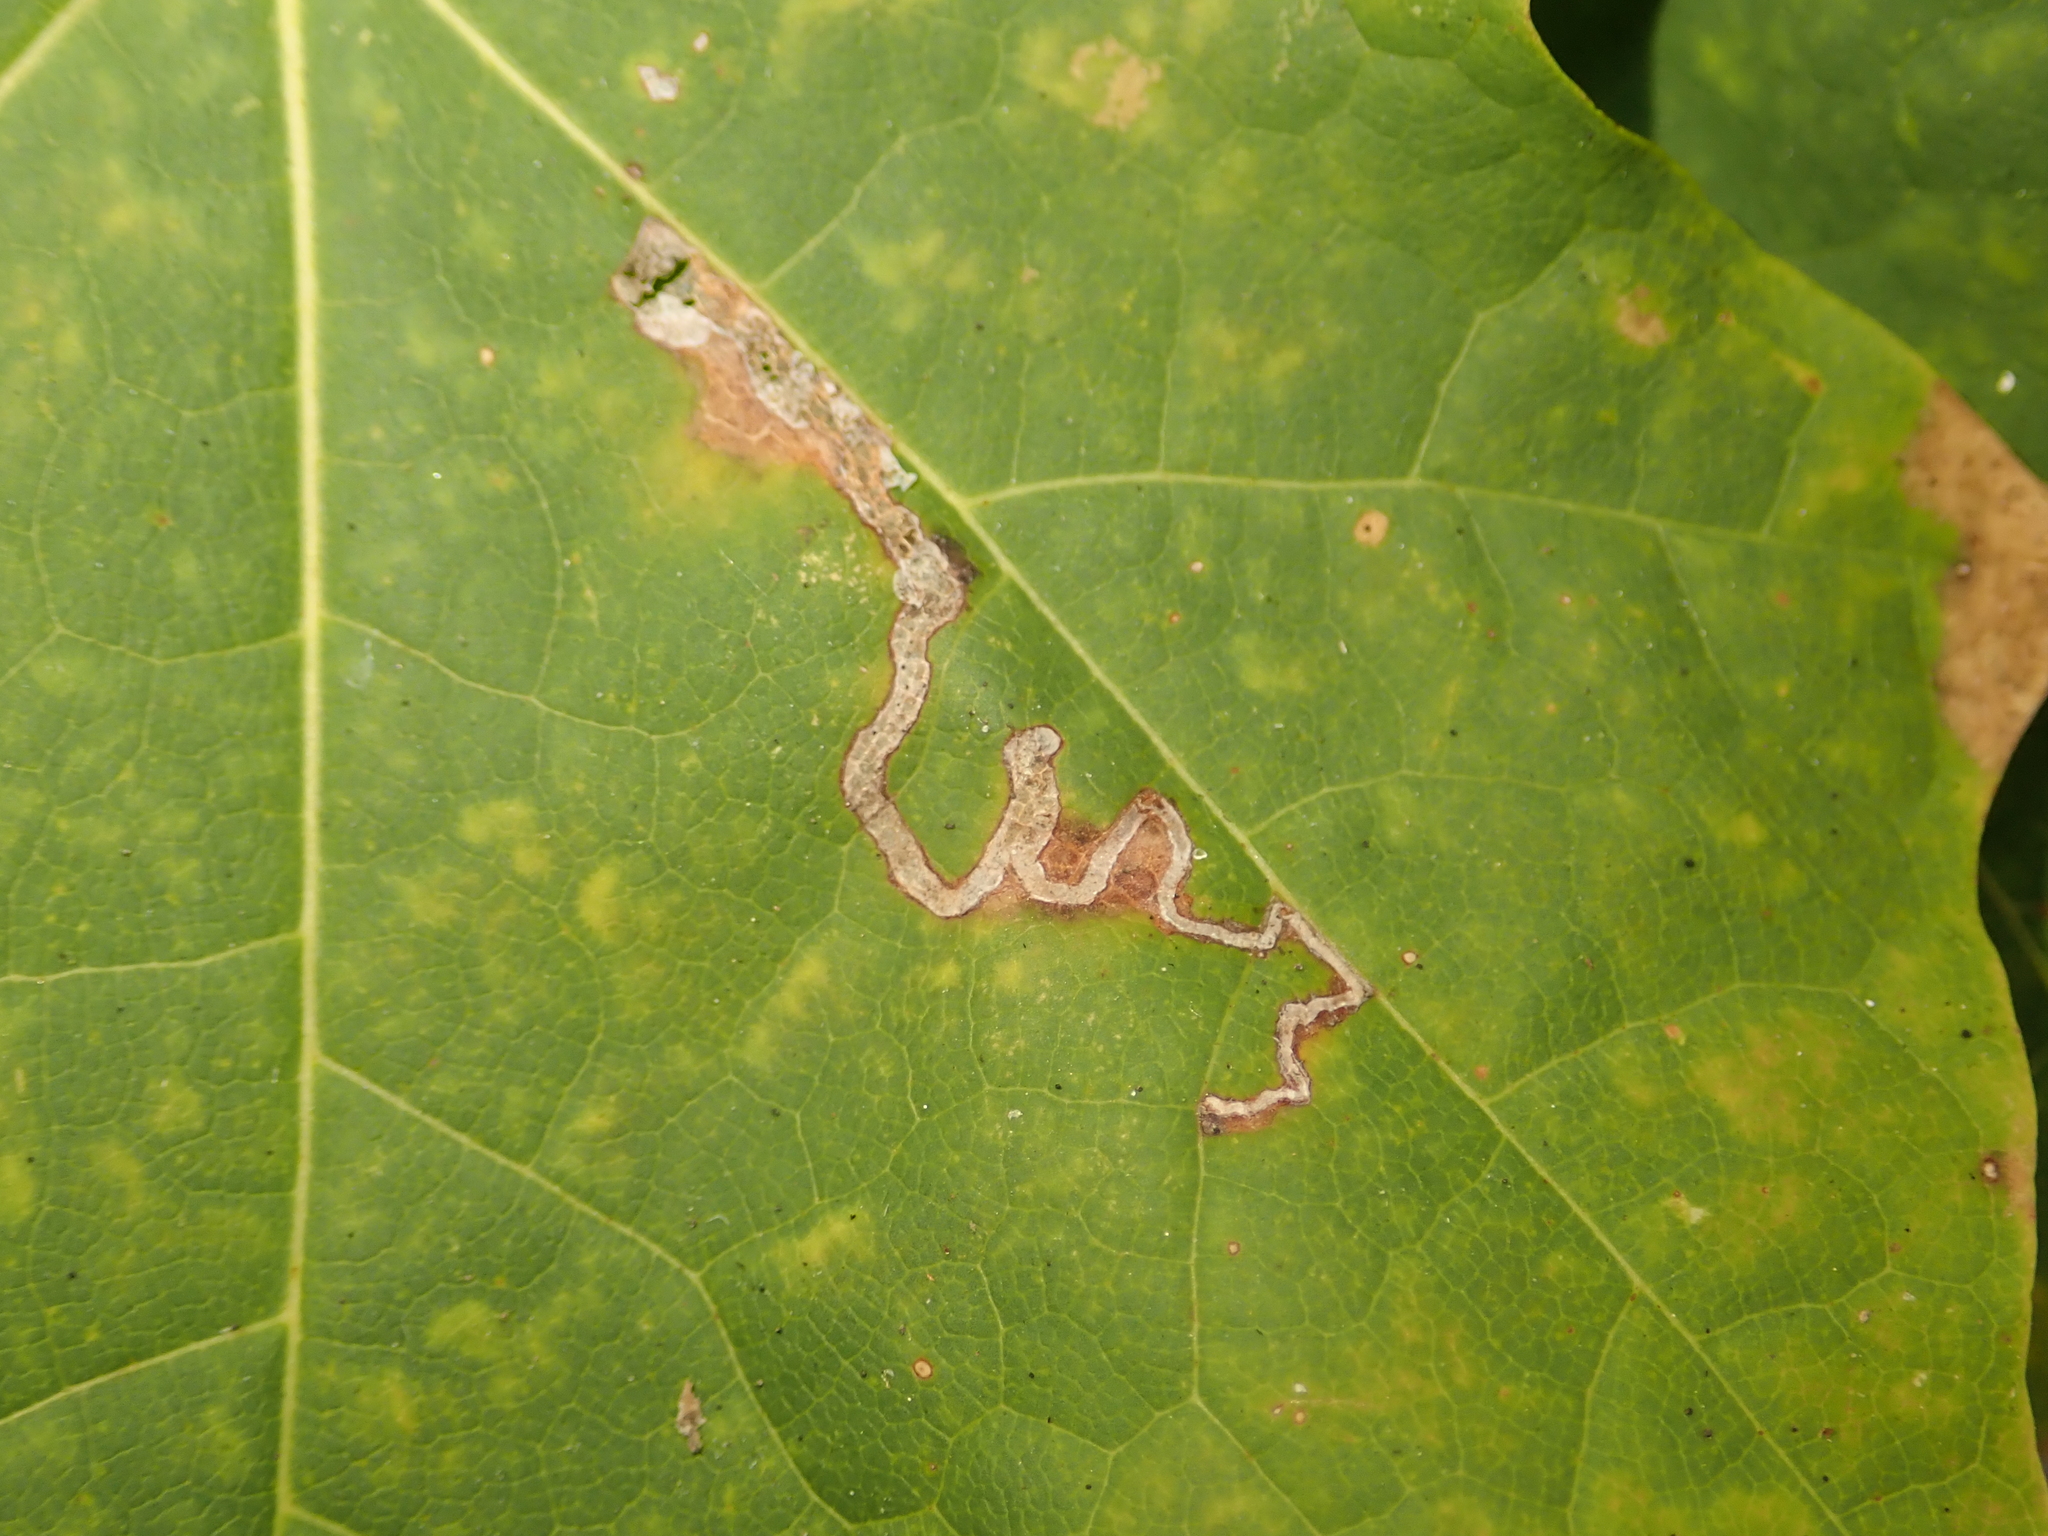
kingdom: Animalia
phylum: Arthropoda
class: Insecta
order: Lepidoptera
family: Nepticulidae
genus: Stigmella
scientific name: Stigmella aceris
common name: Scarce maple pigmy
